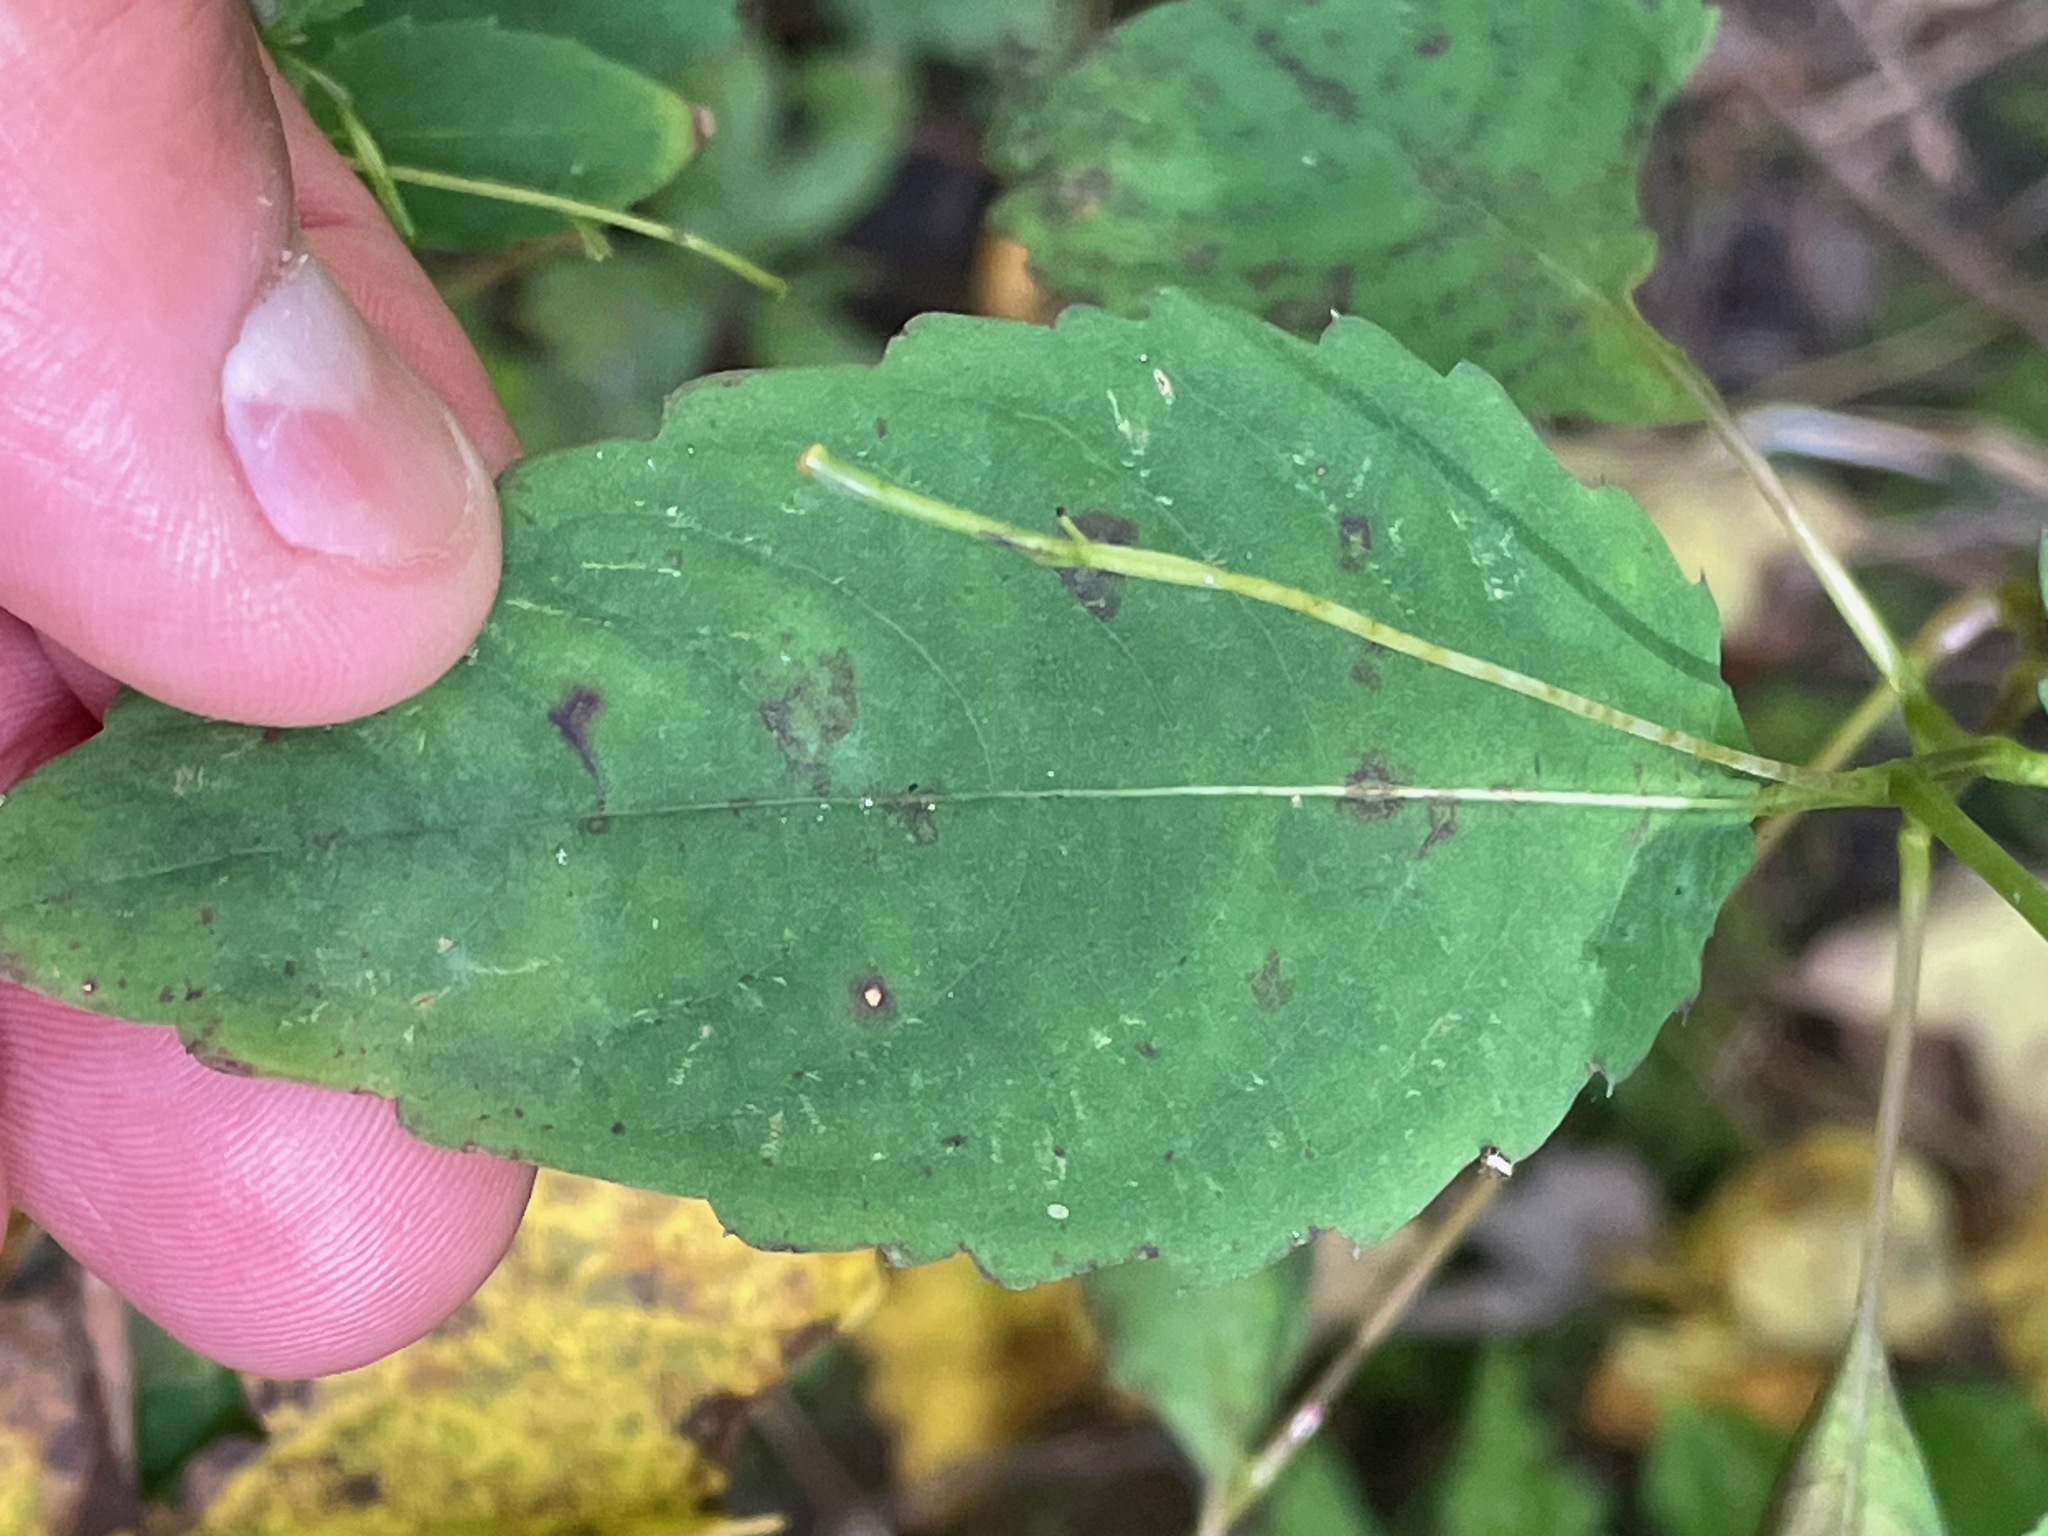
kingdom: Plantae
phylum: Tracheophyta
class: Magnoliopsida
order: Ericales
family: Balsaminaceae
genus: Impatiens
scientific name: Impatiens pallida
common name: Pale snapweed
